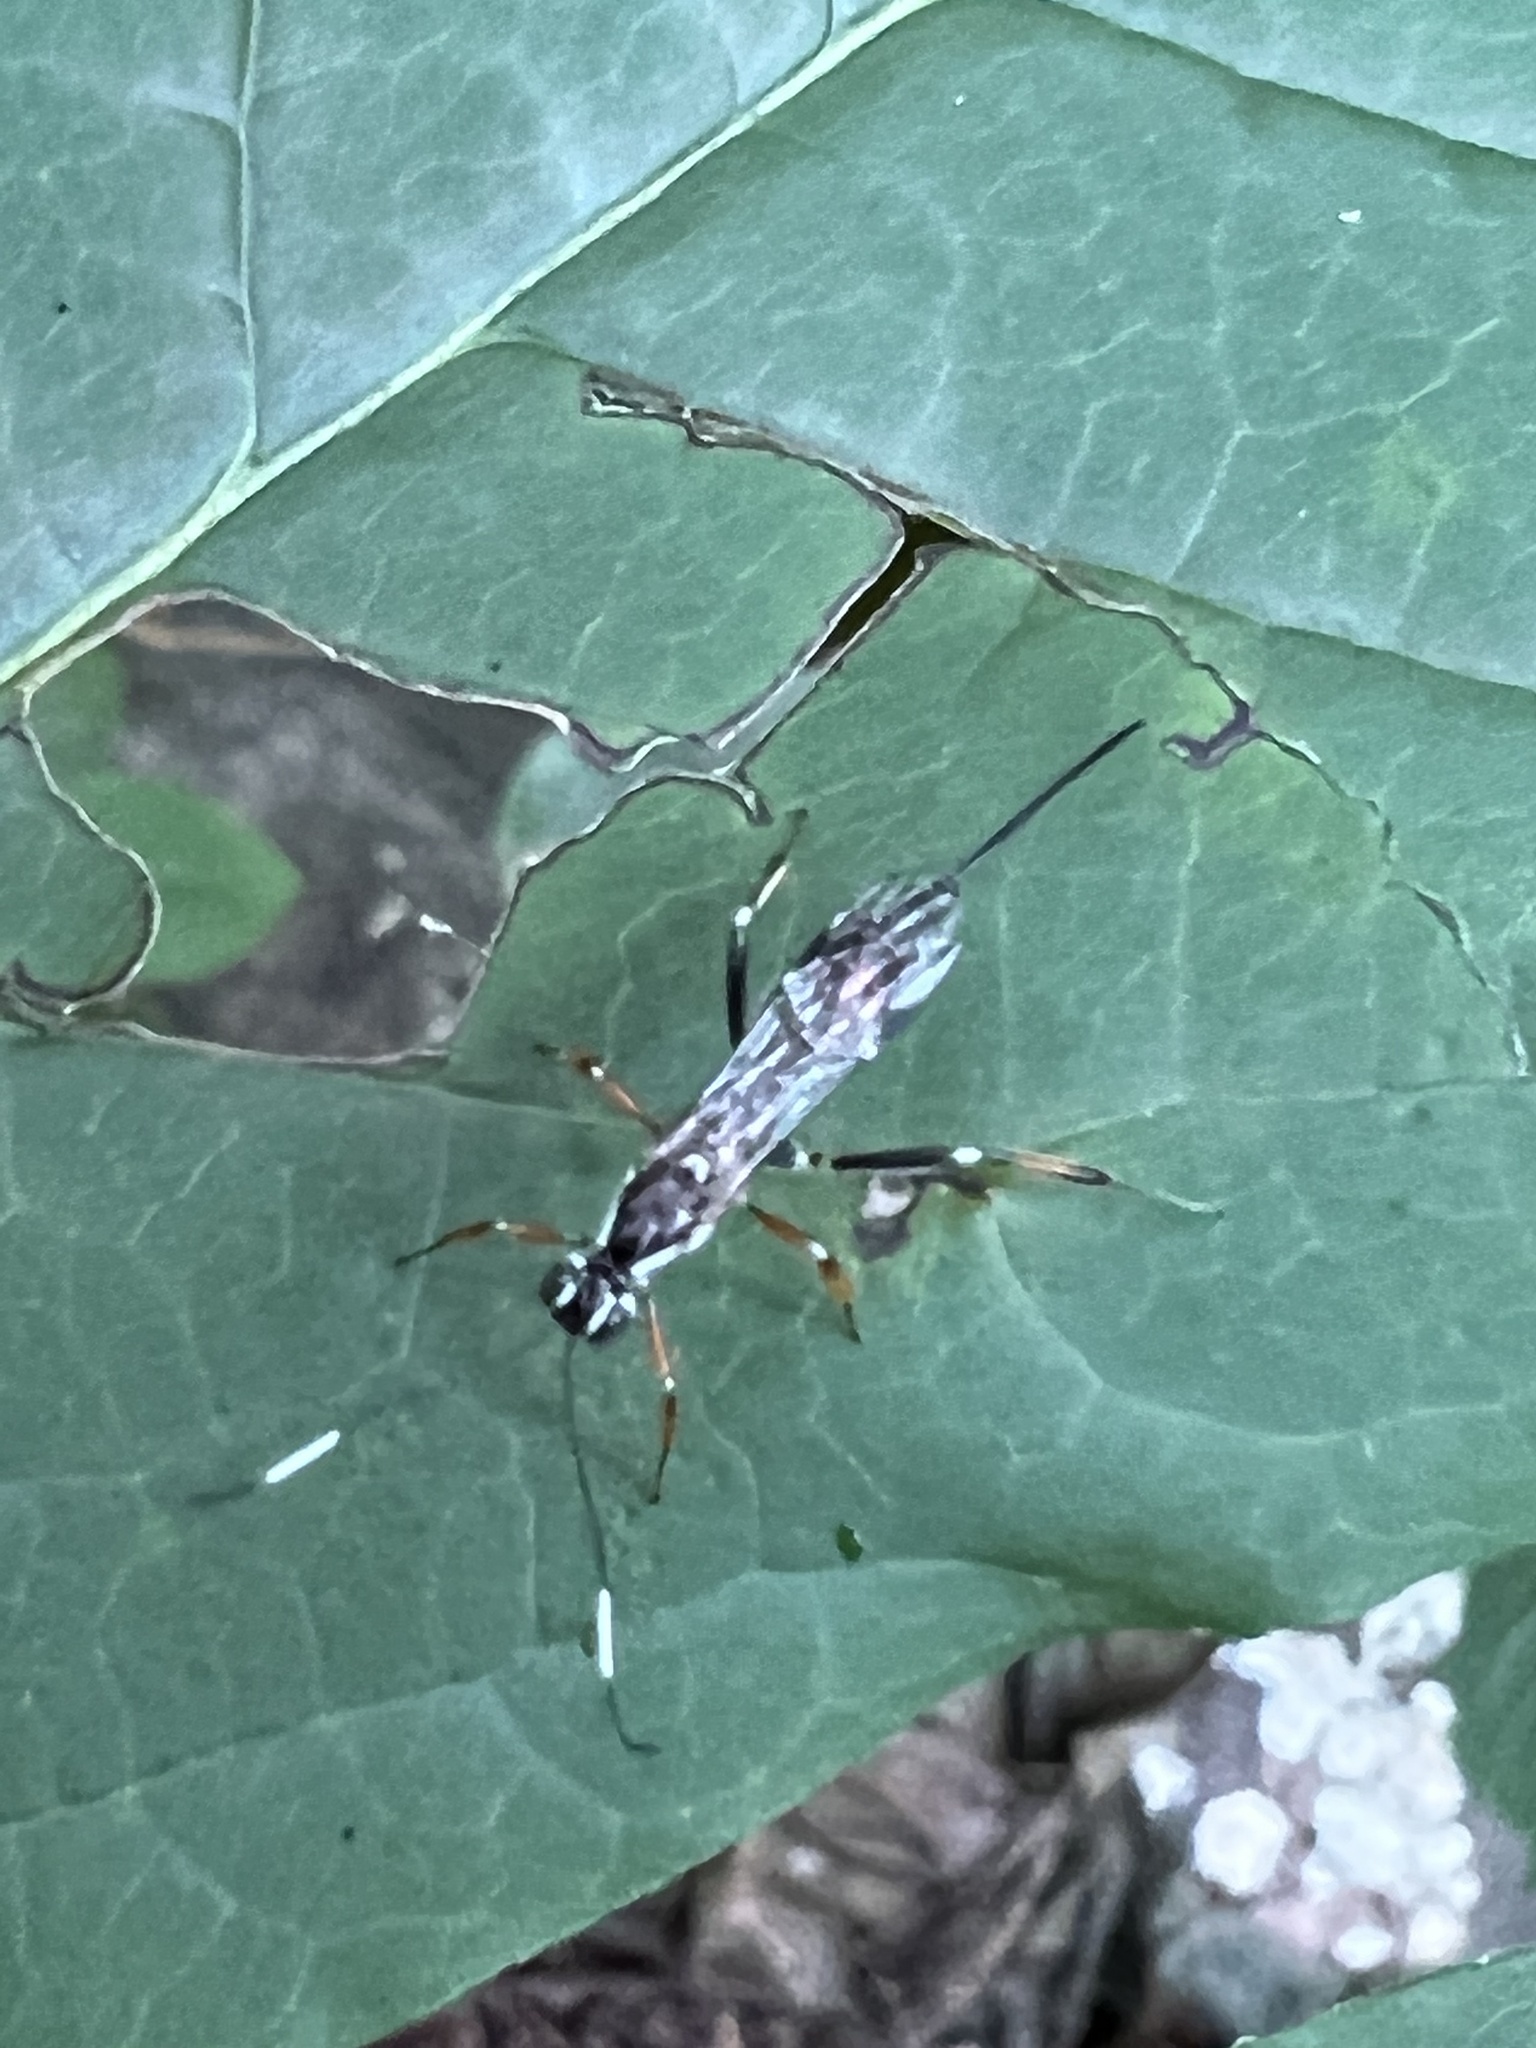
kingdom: Animalia
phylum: Arthropoda
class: Insecta
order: Hymenoptera
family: Ichneumonidae
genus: Xorides
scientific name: Xorides albopictus
